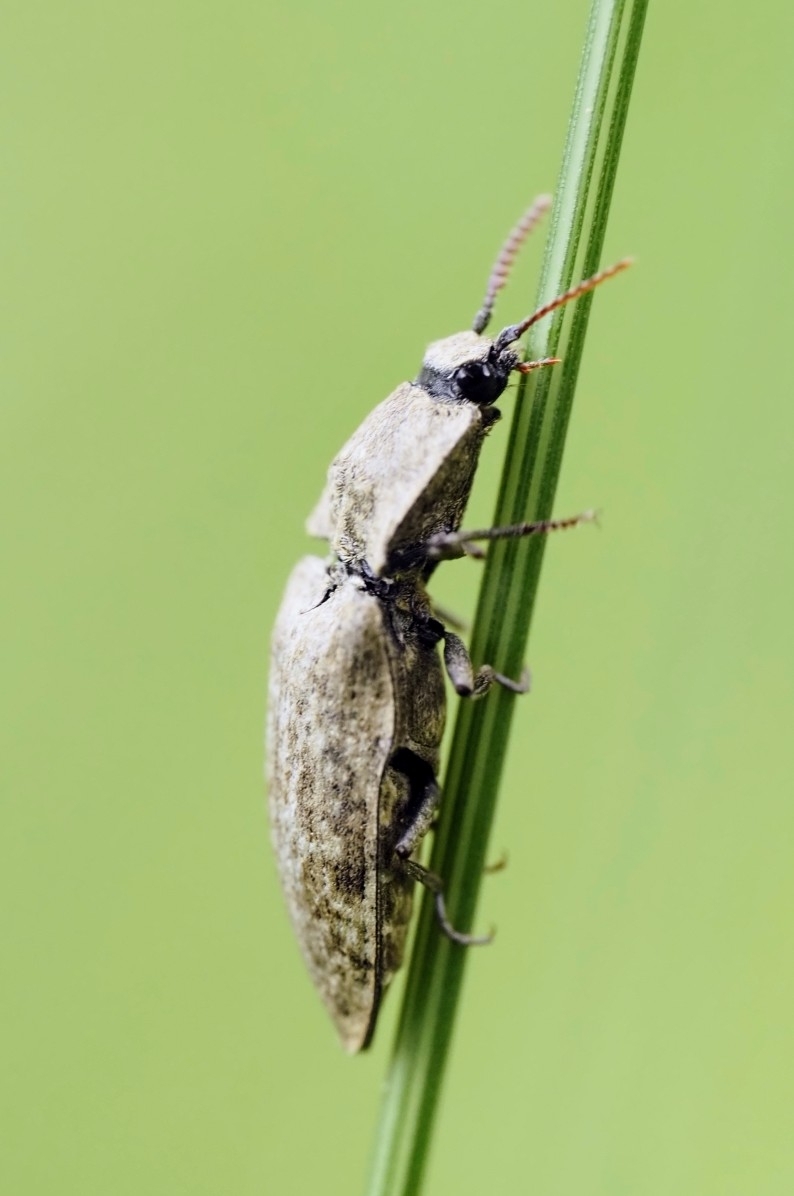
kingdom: Animalia
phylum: Arthropoda
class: Insecta
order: Coleoptera
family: Elateridae
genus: Agrypnus
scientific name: Agrypnus murinus
